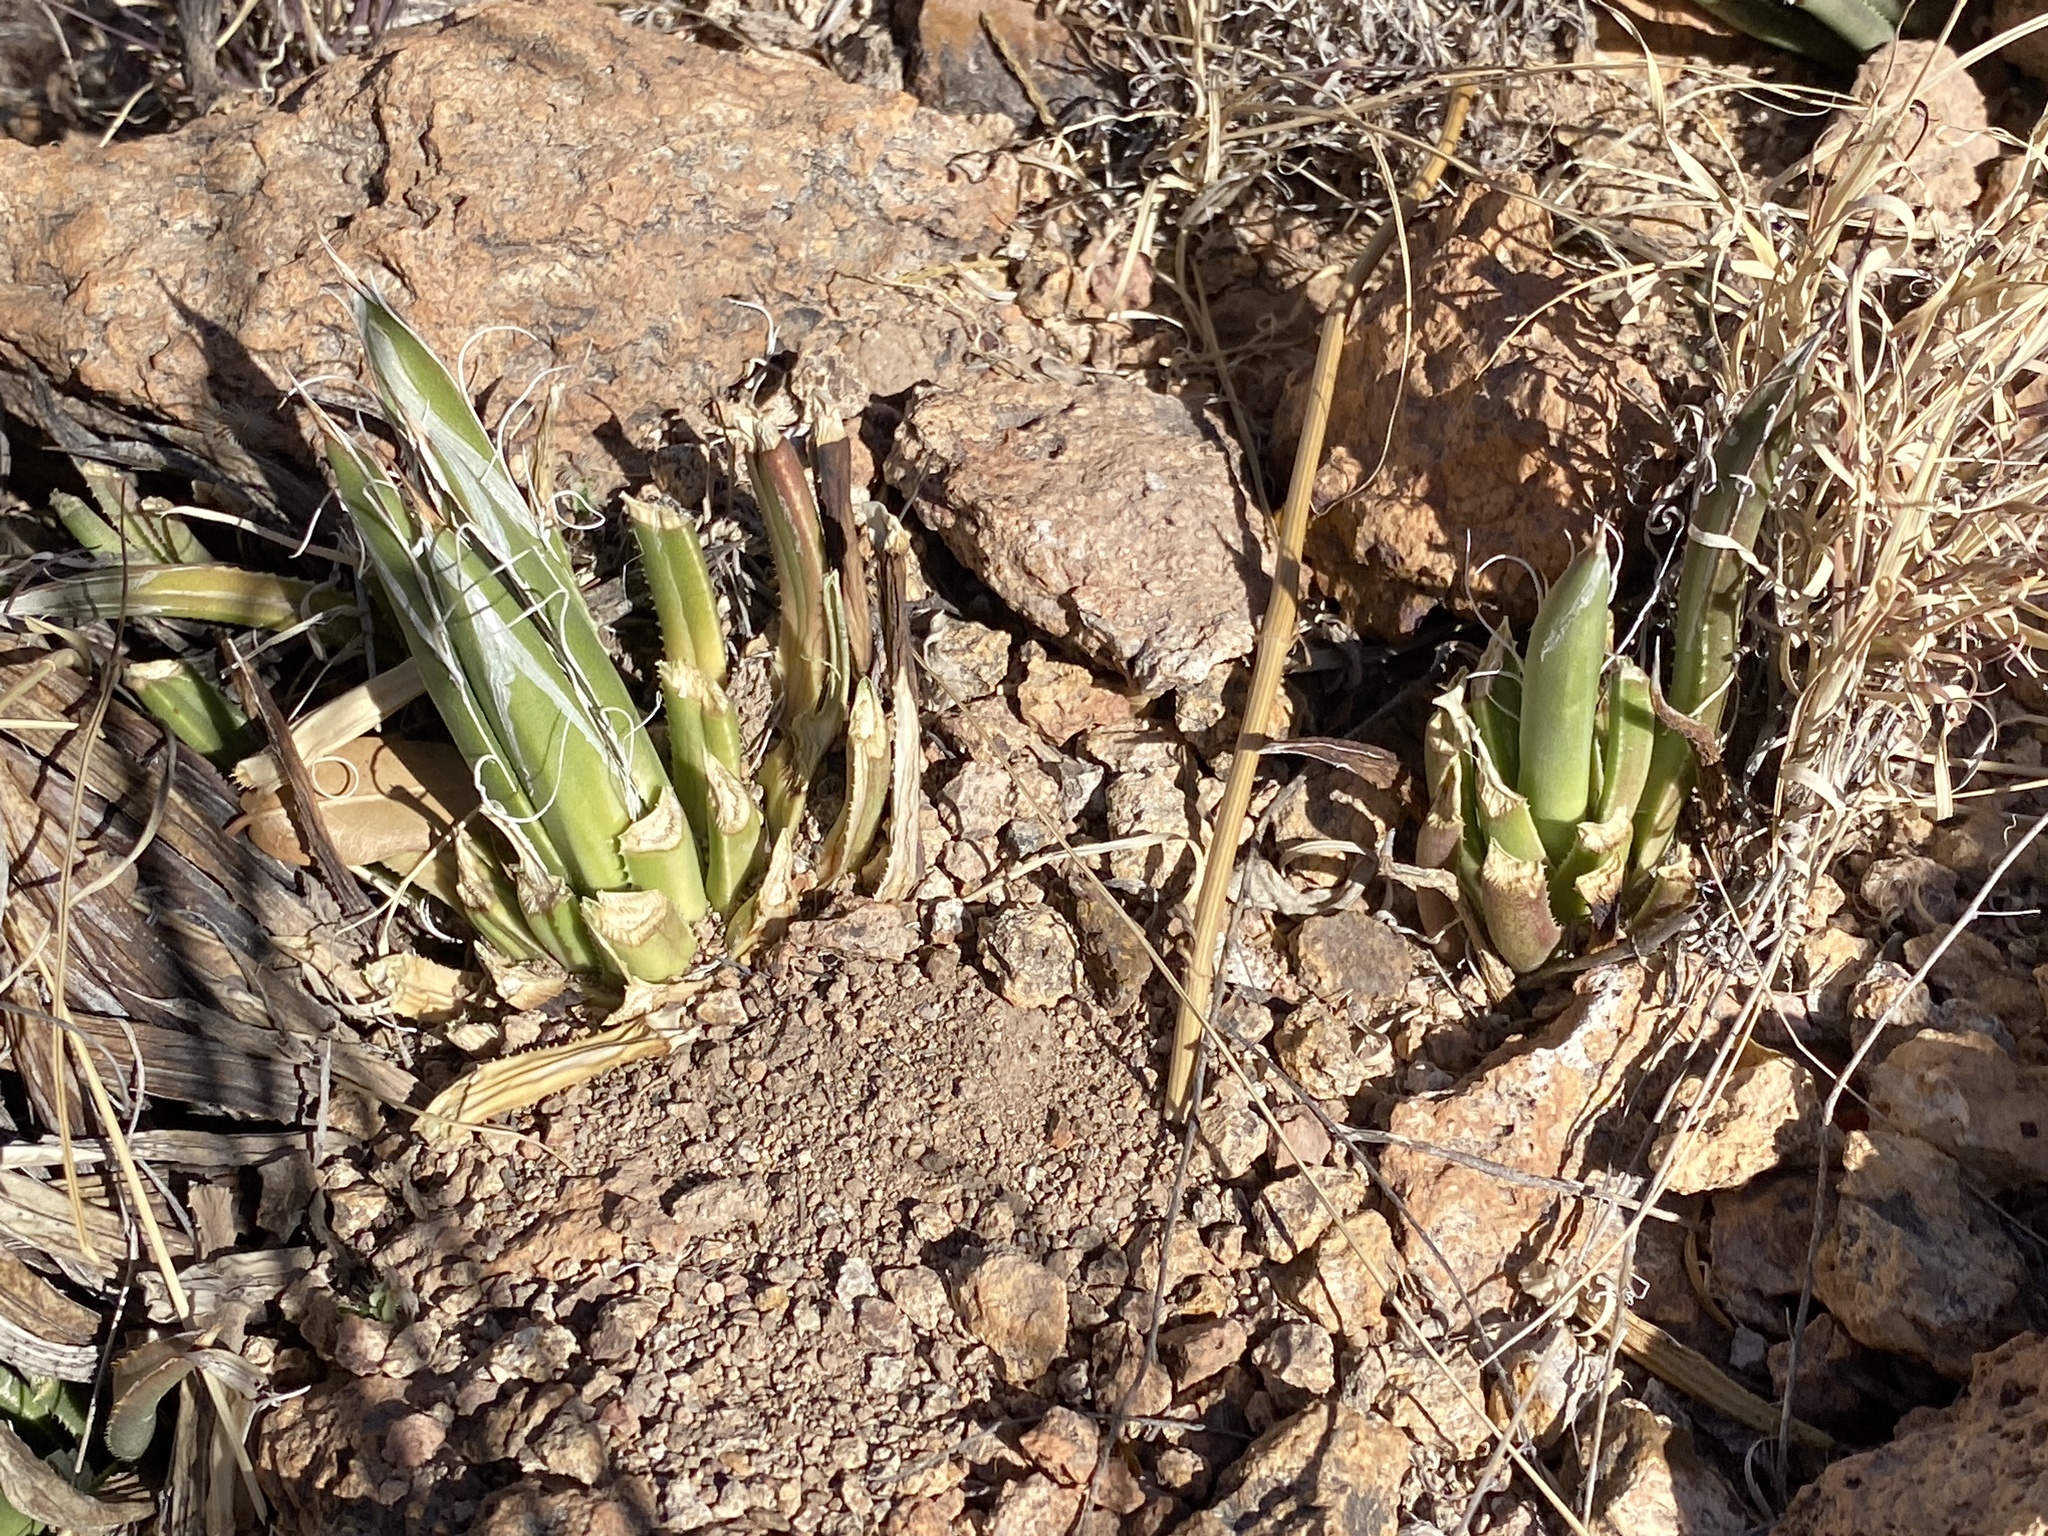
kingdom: Plantae
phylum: Tracheophyta
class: Liliopsida
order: Asparagales
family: Asparagaceae
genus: Agave
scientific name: Agave parviflora
